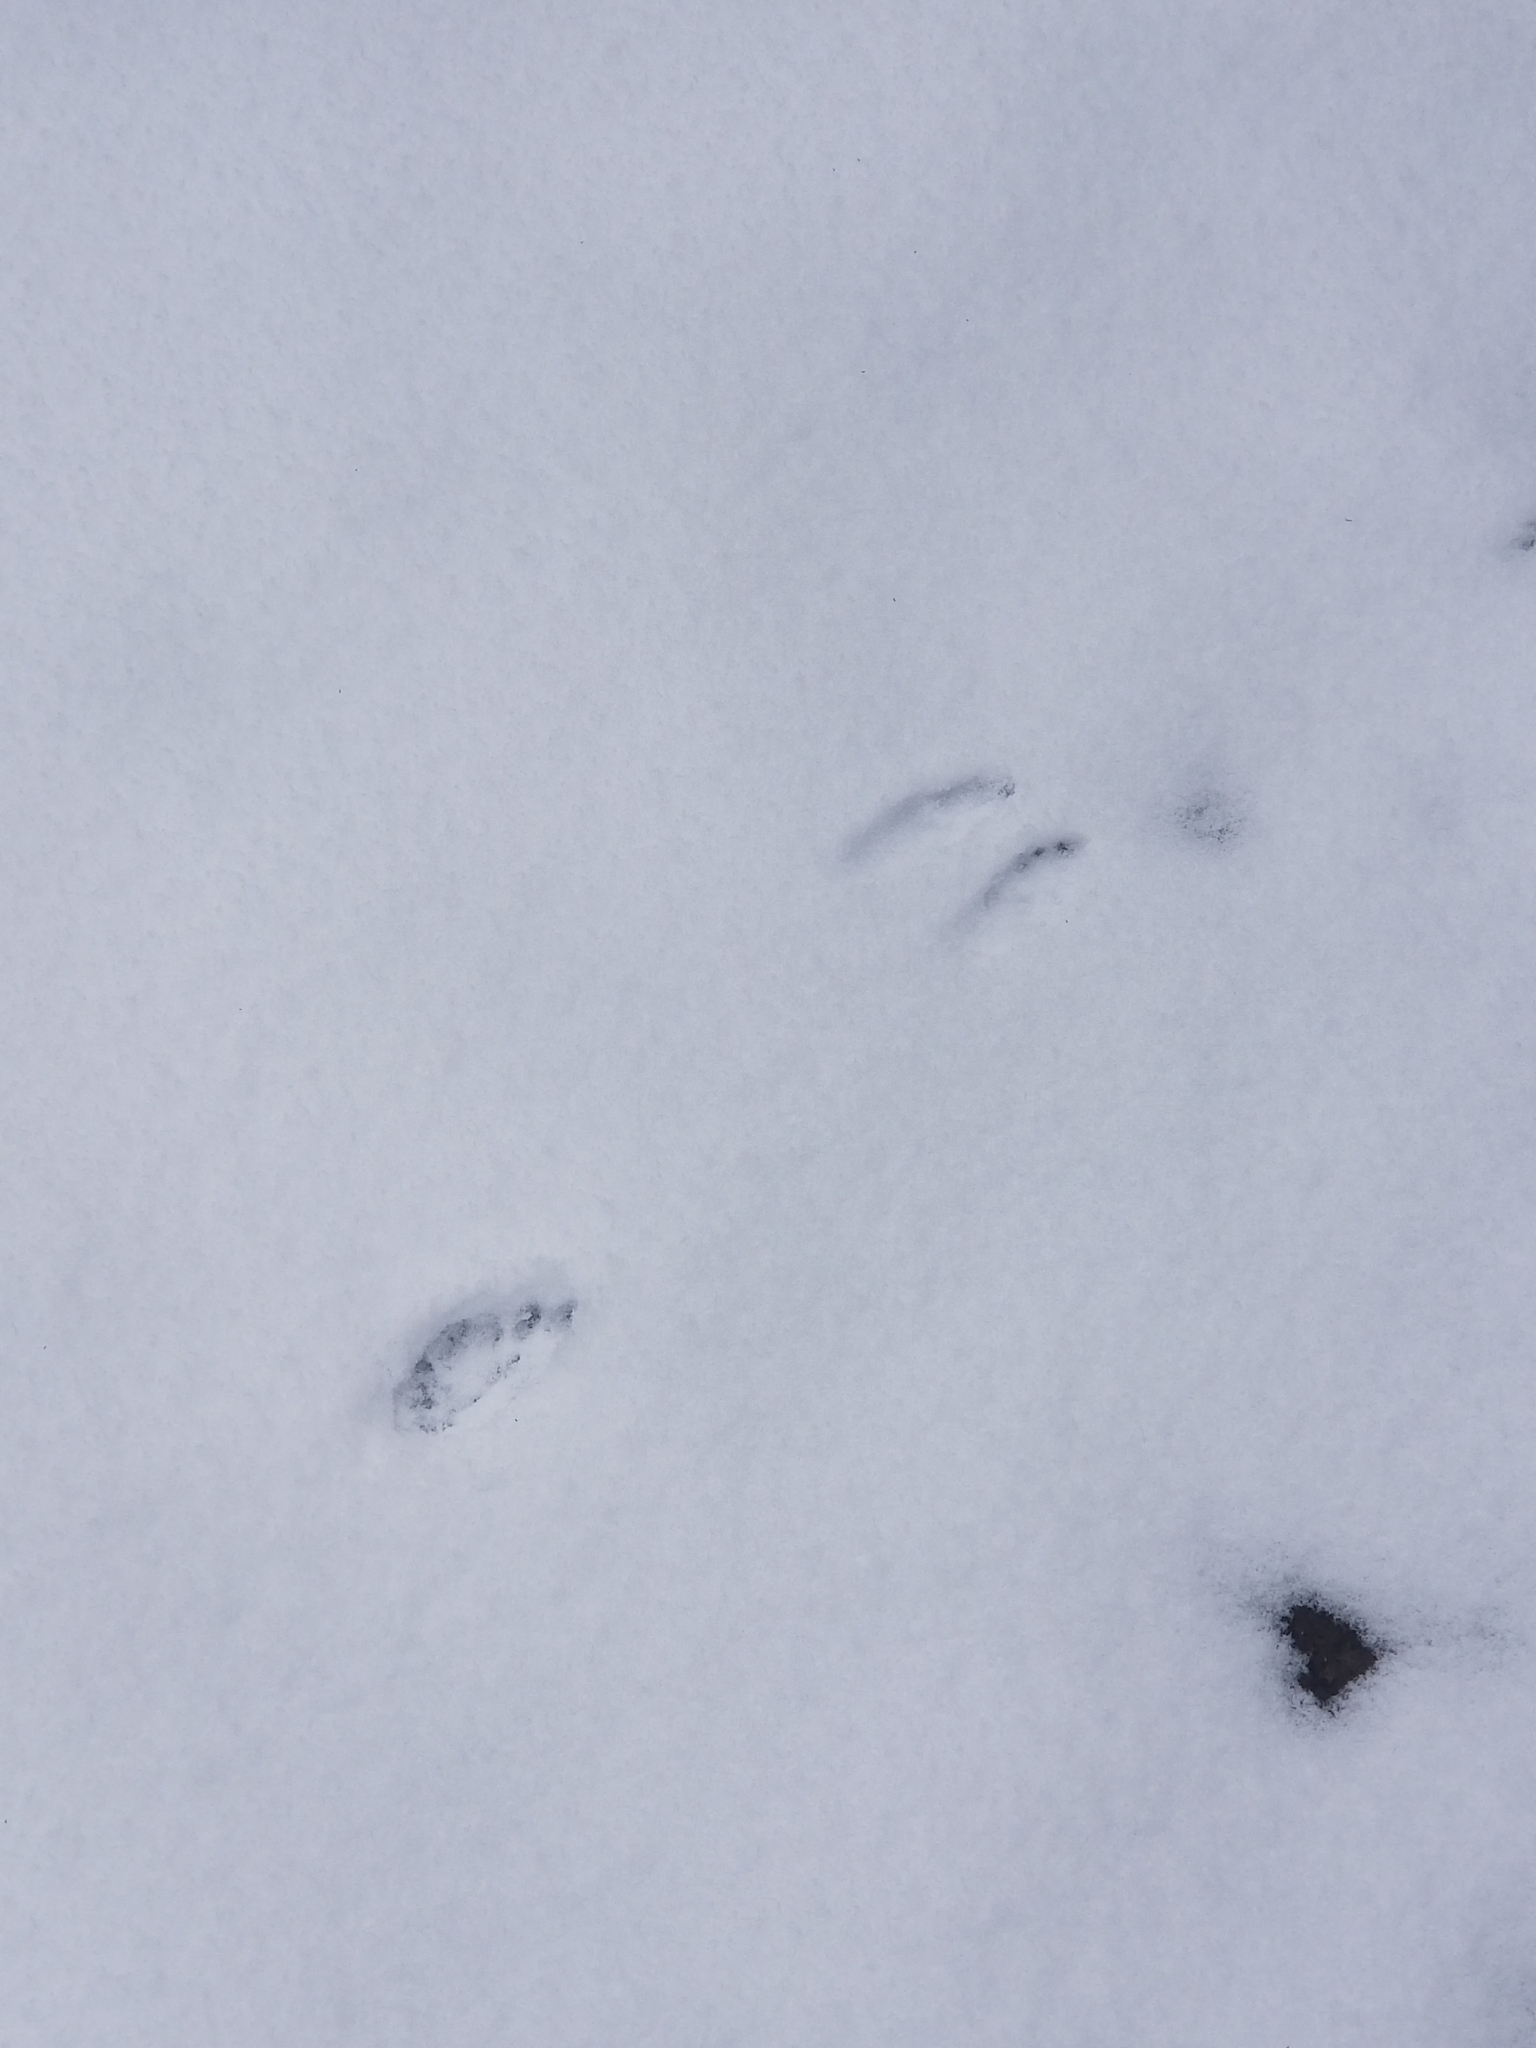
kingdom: Animalia
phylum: Chordata
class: Mammalia
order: Lagomorpha
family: Leporidae
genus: Sylvilagus
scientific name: Sylvilagus floridanus
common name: Eastern cottontail
